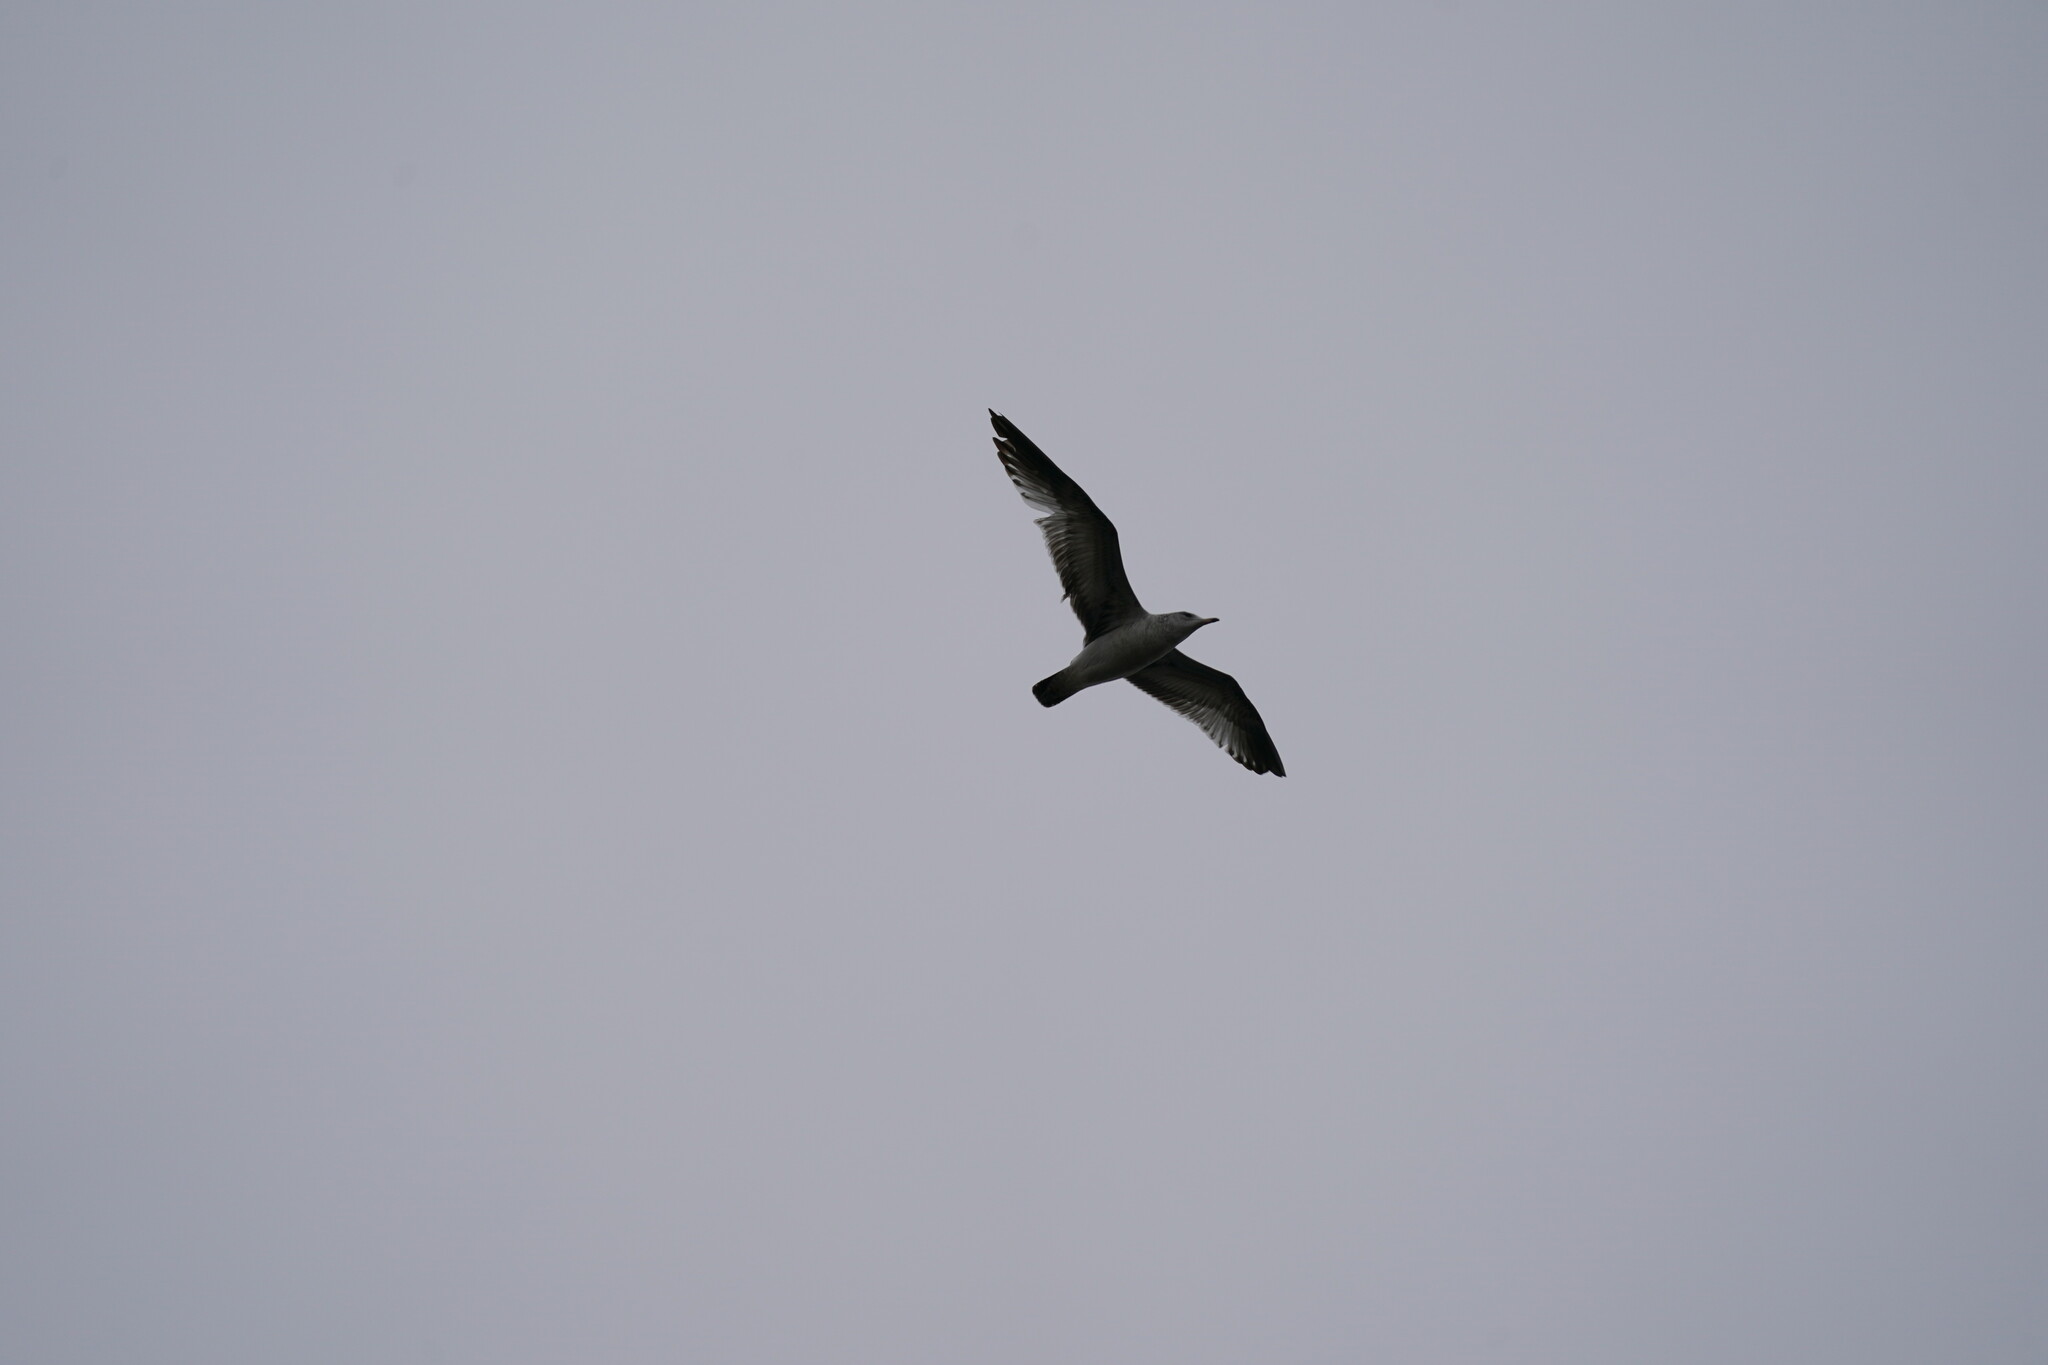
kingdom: Animalia
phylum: Chordata
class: Aves
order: Charadriiformes
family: Laridae
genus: Larus
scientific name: Larus delawarensis
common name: Ring-billed gull
